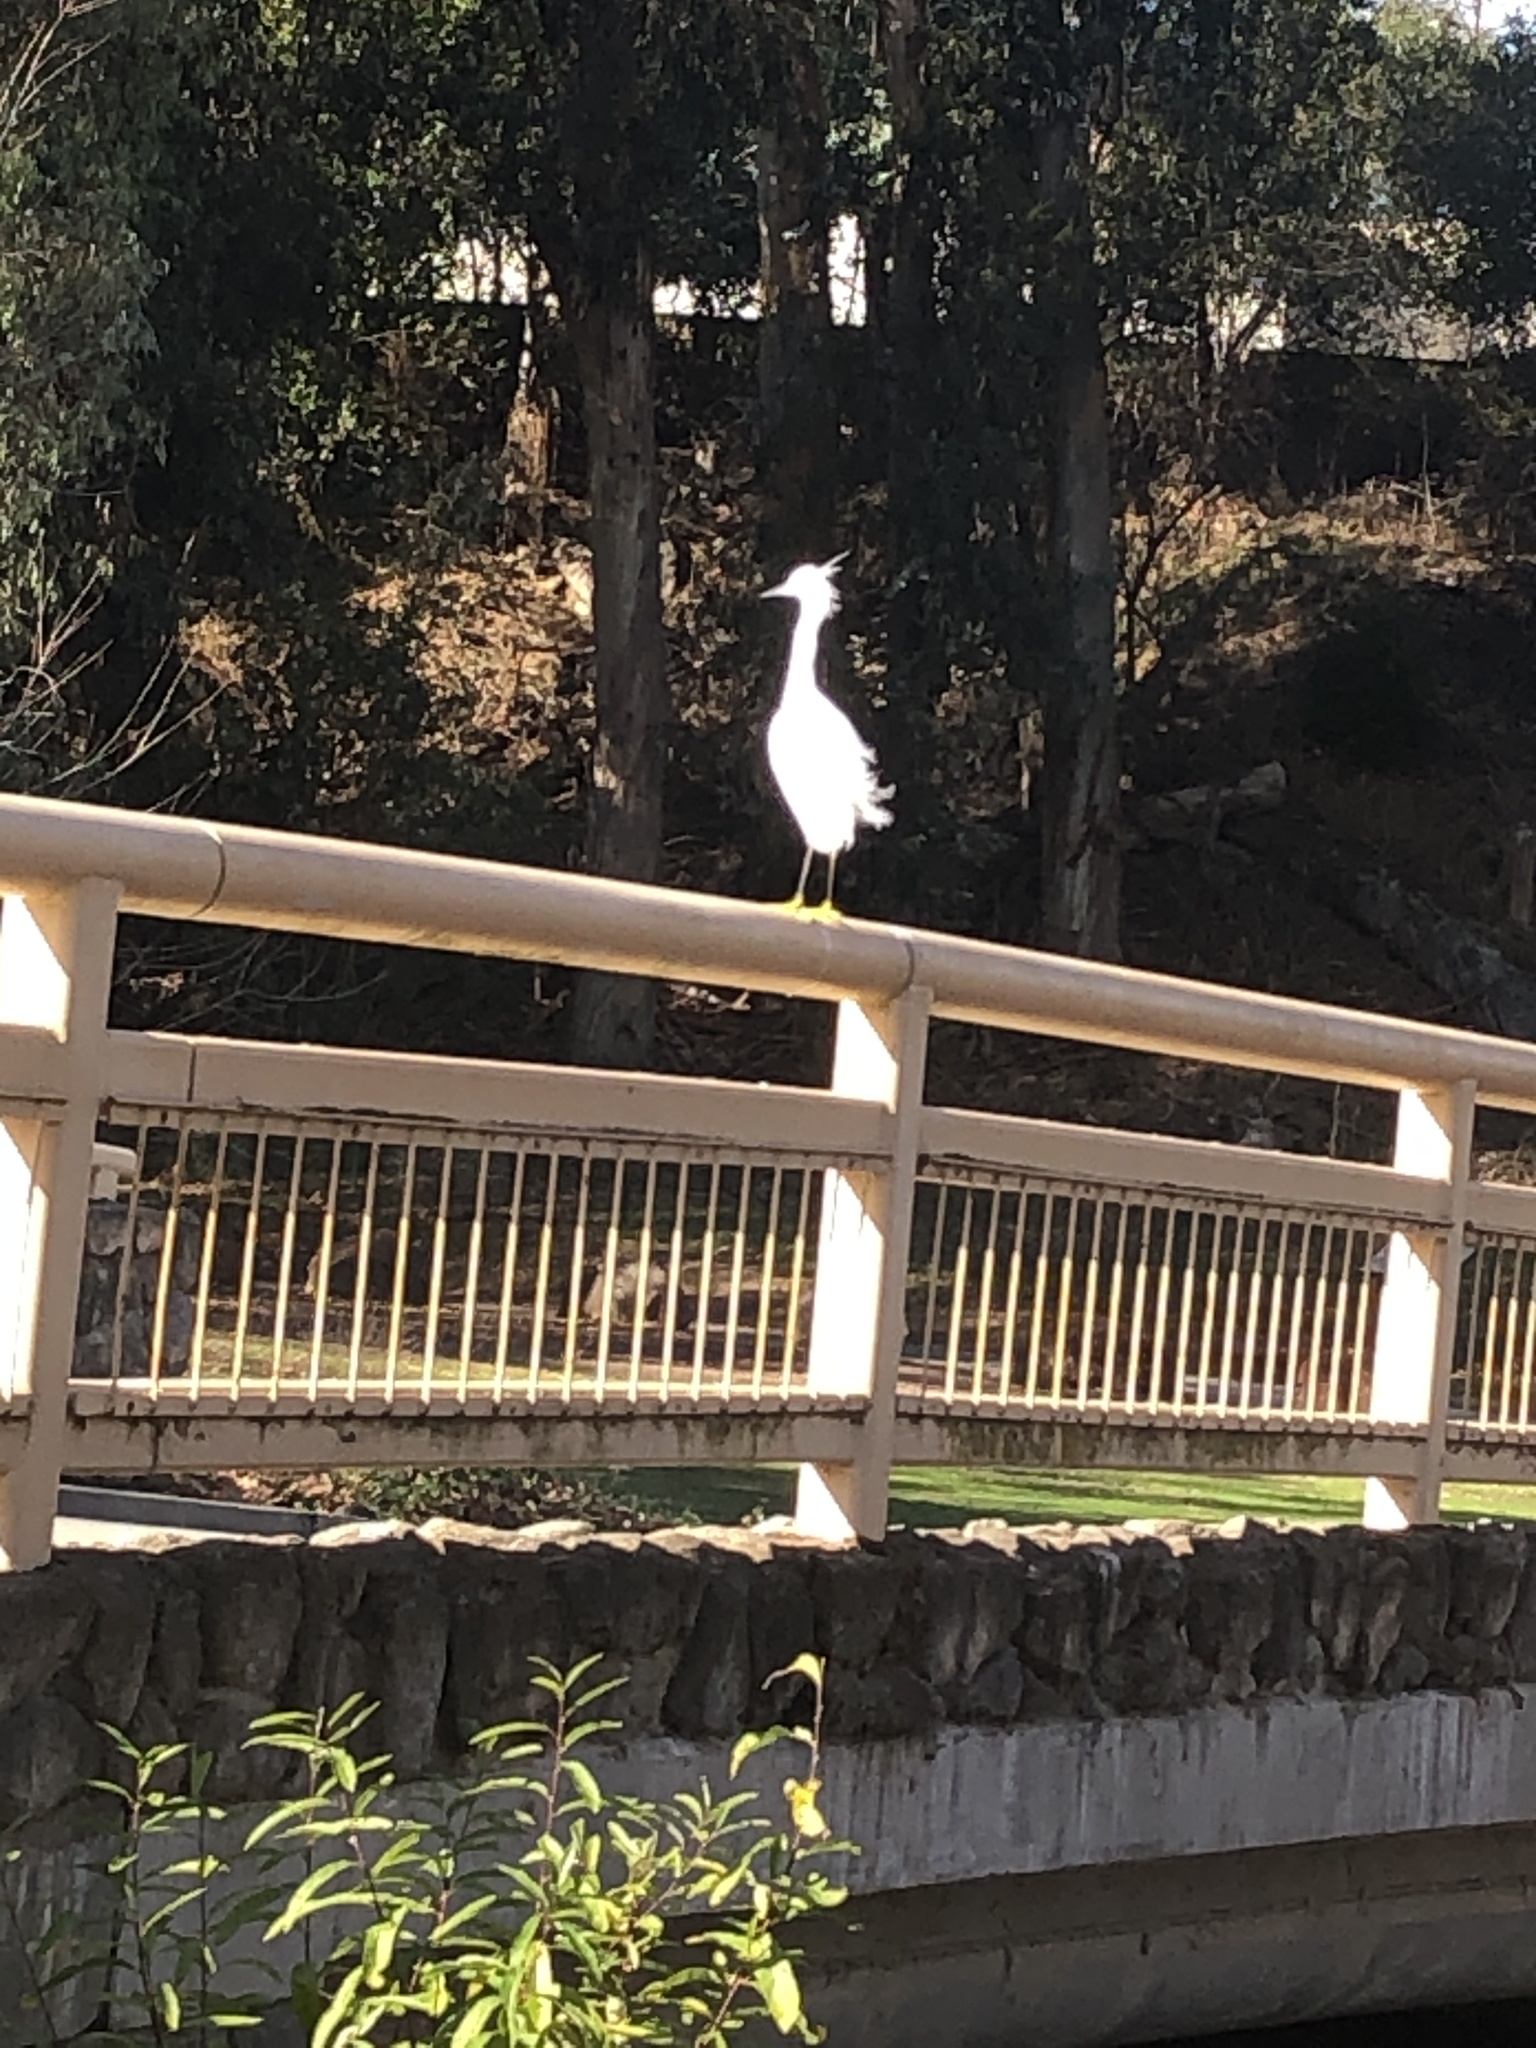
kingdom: Animalia
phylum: Chordata
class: Aves
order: Pelecaniformes
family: Ardeidae
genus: Egretta
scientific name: Egretta thula
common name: Snowy egret
